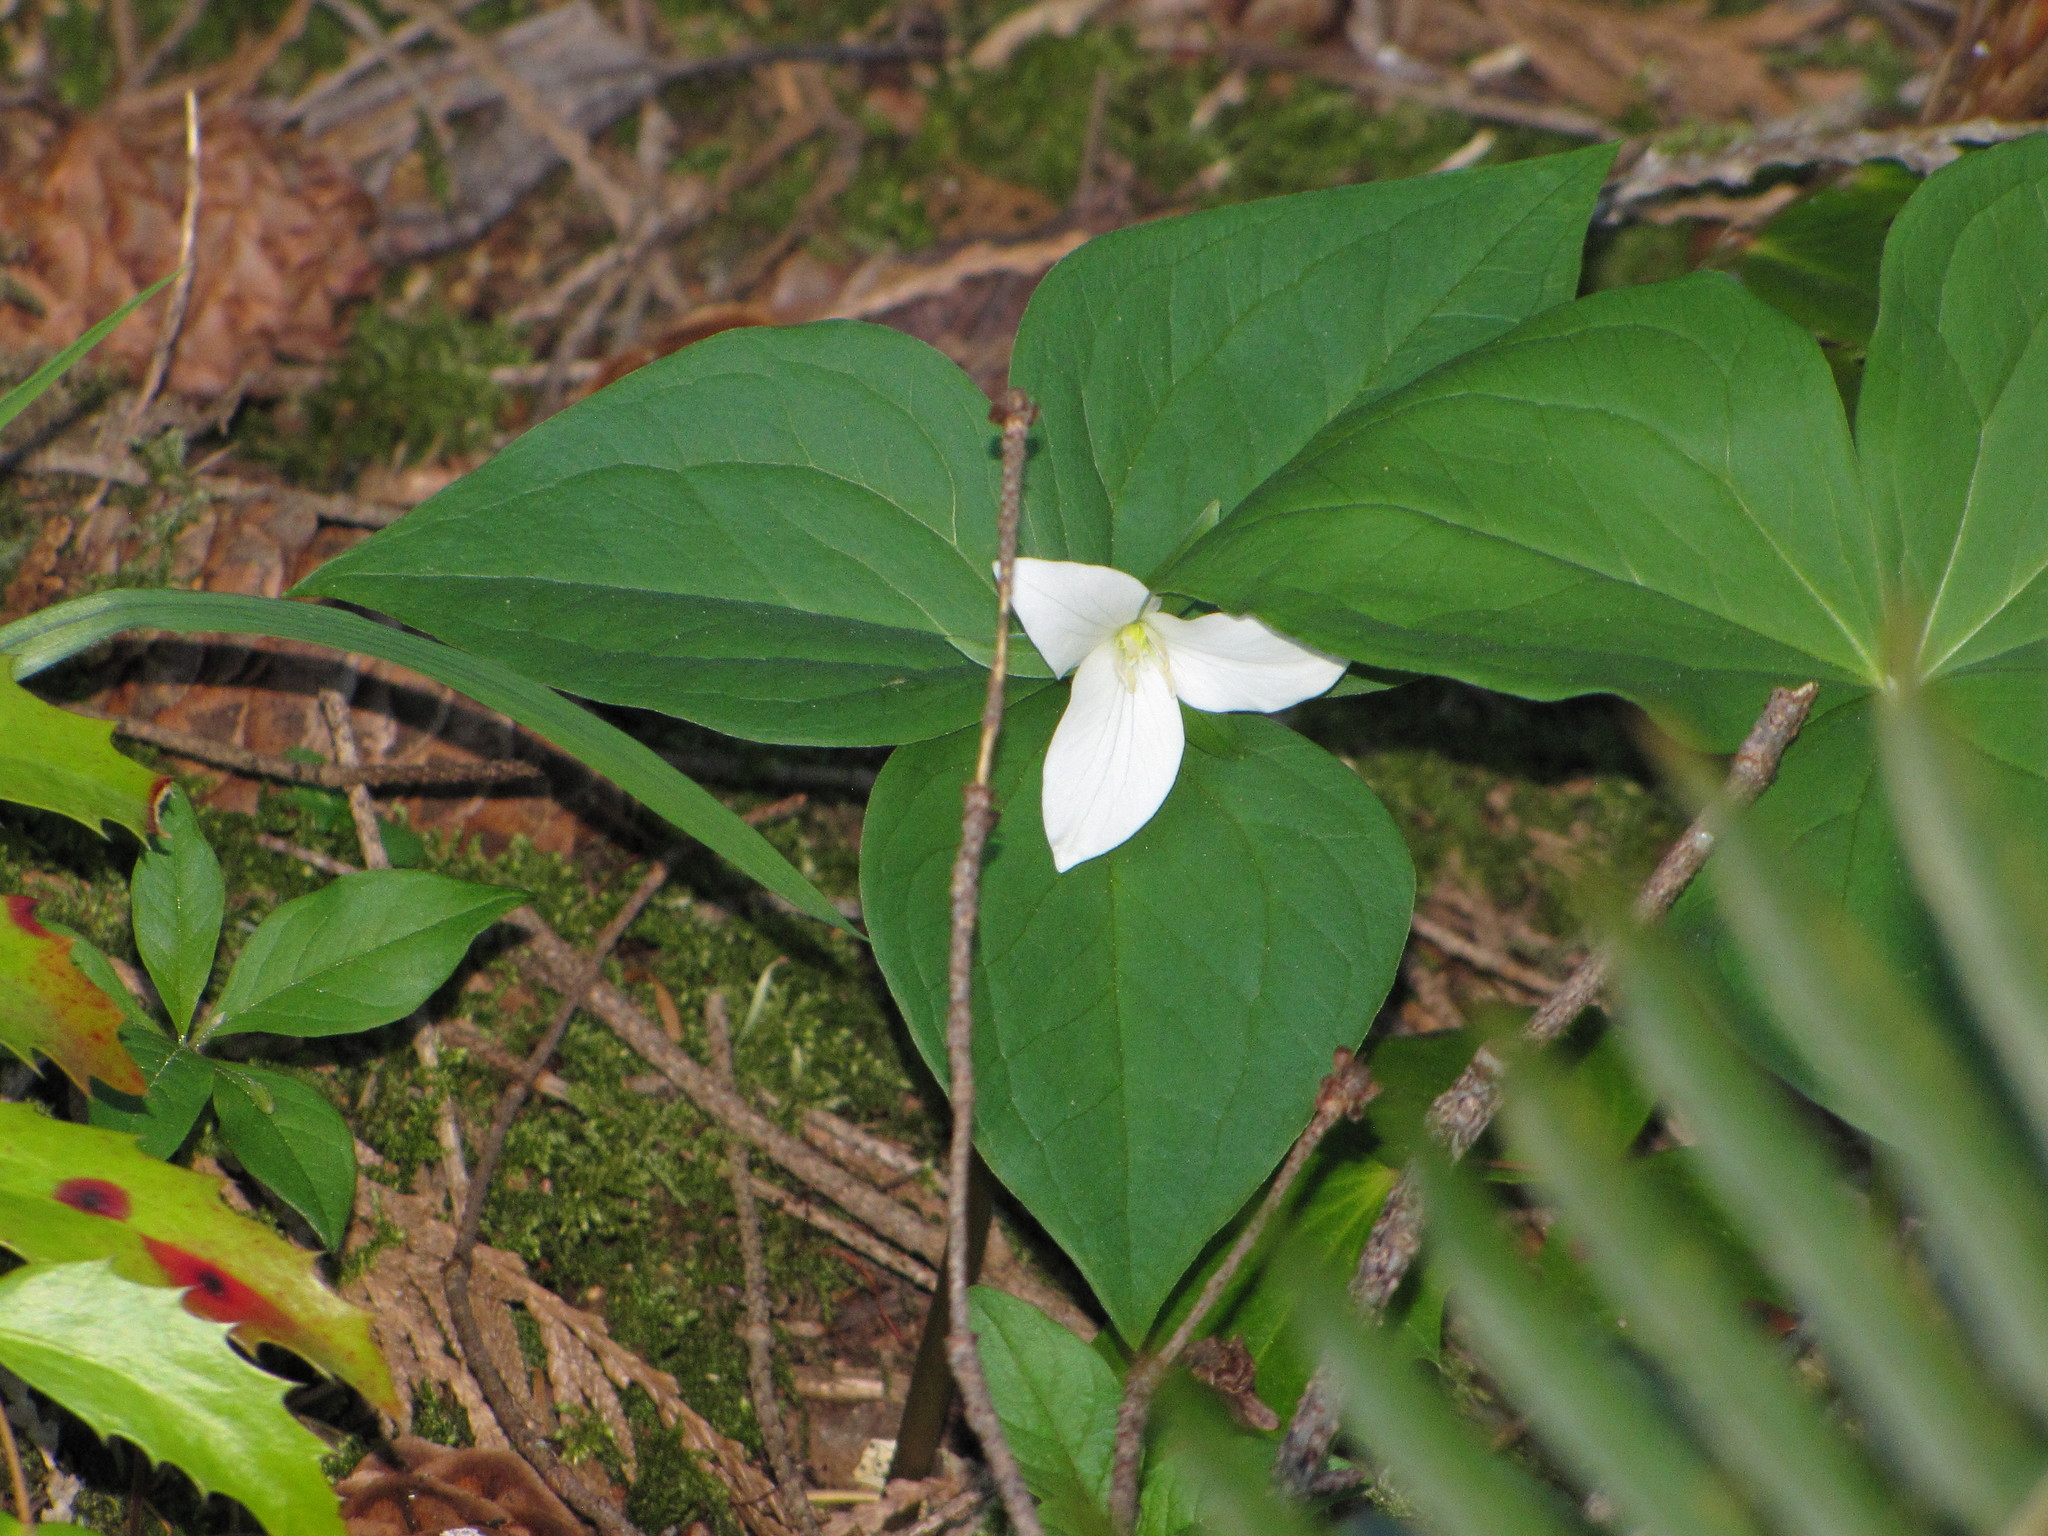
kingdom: Plantae
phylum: Tracheophyta
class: Liliopsida
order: Liliales
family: Melanthiaceae
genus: Trillium
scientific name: Trillium ovatum
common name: Pacific trillium
